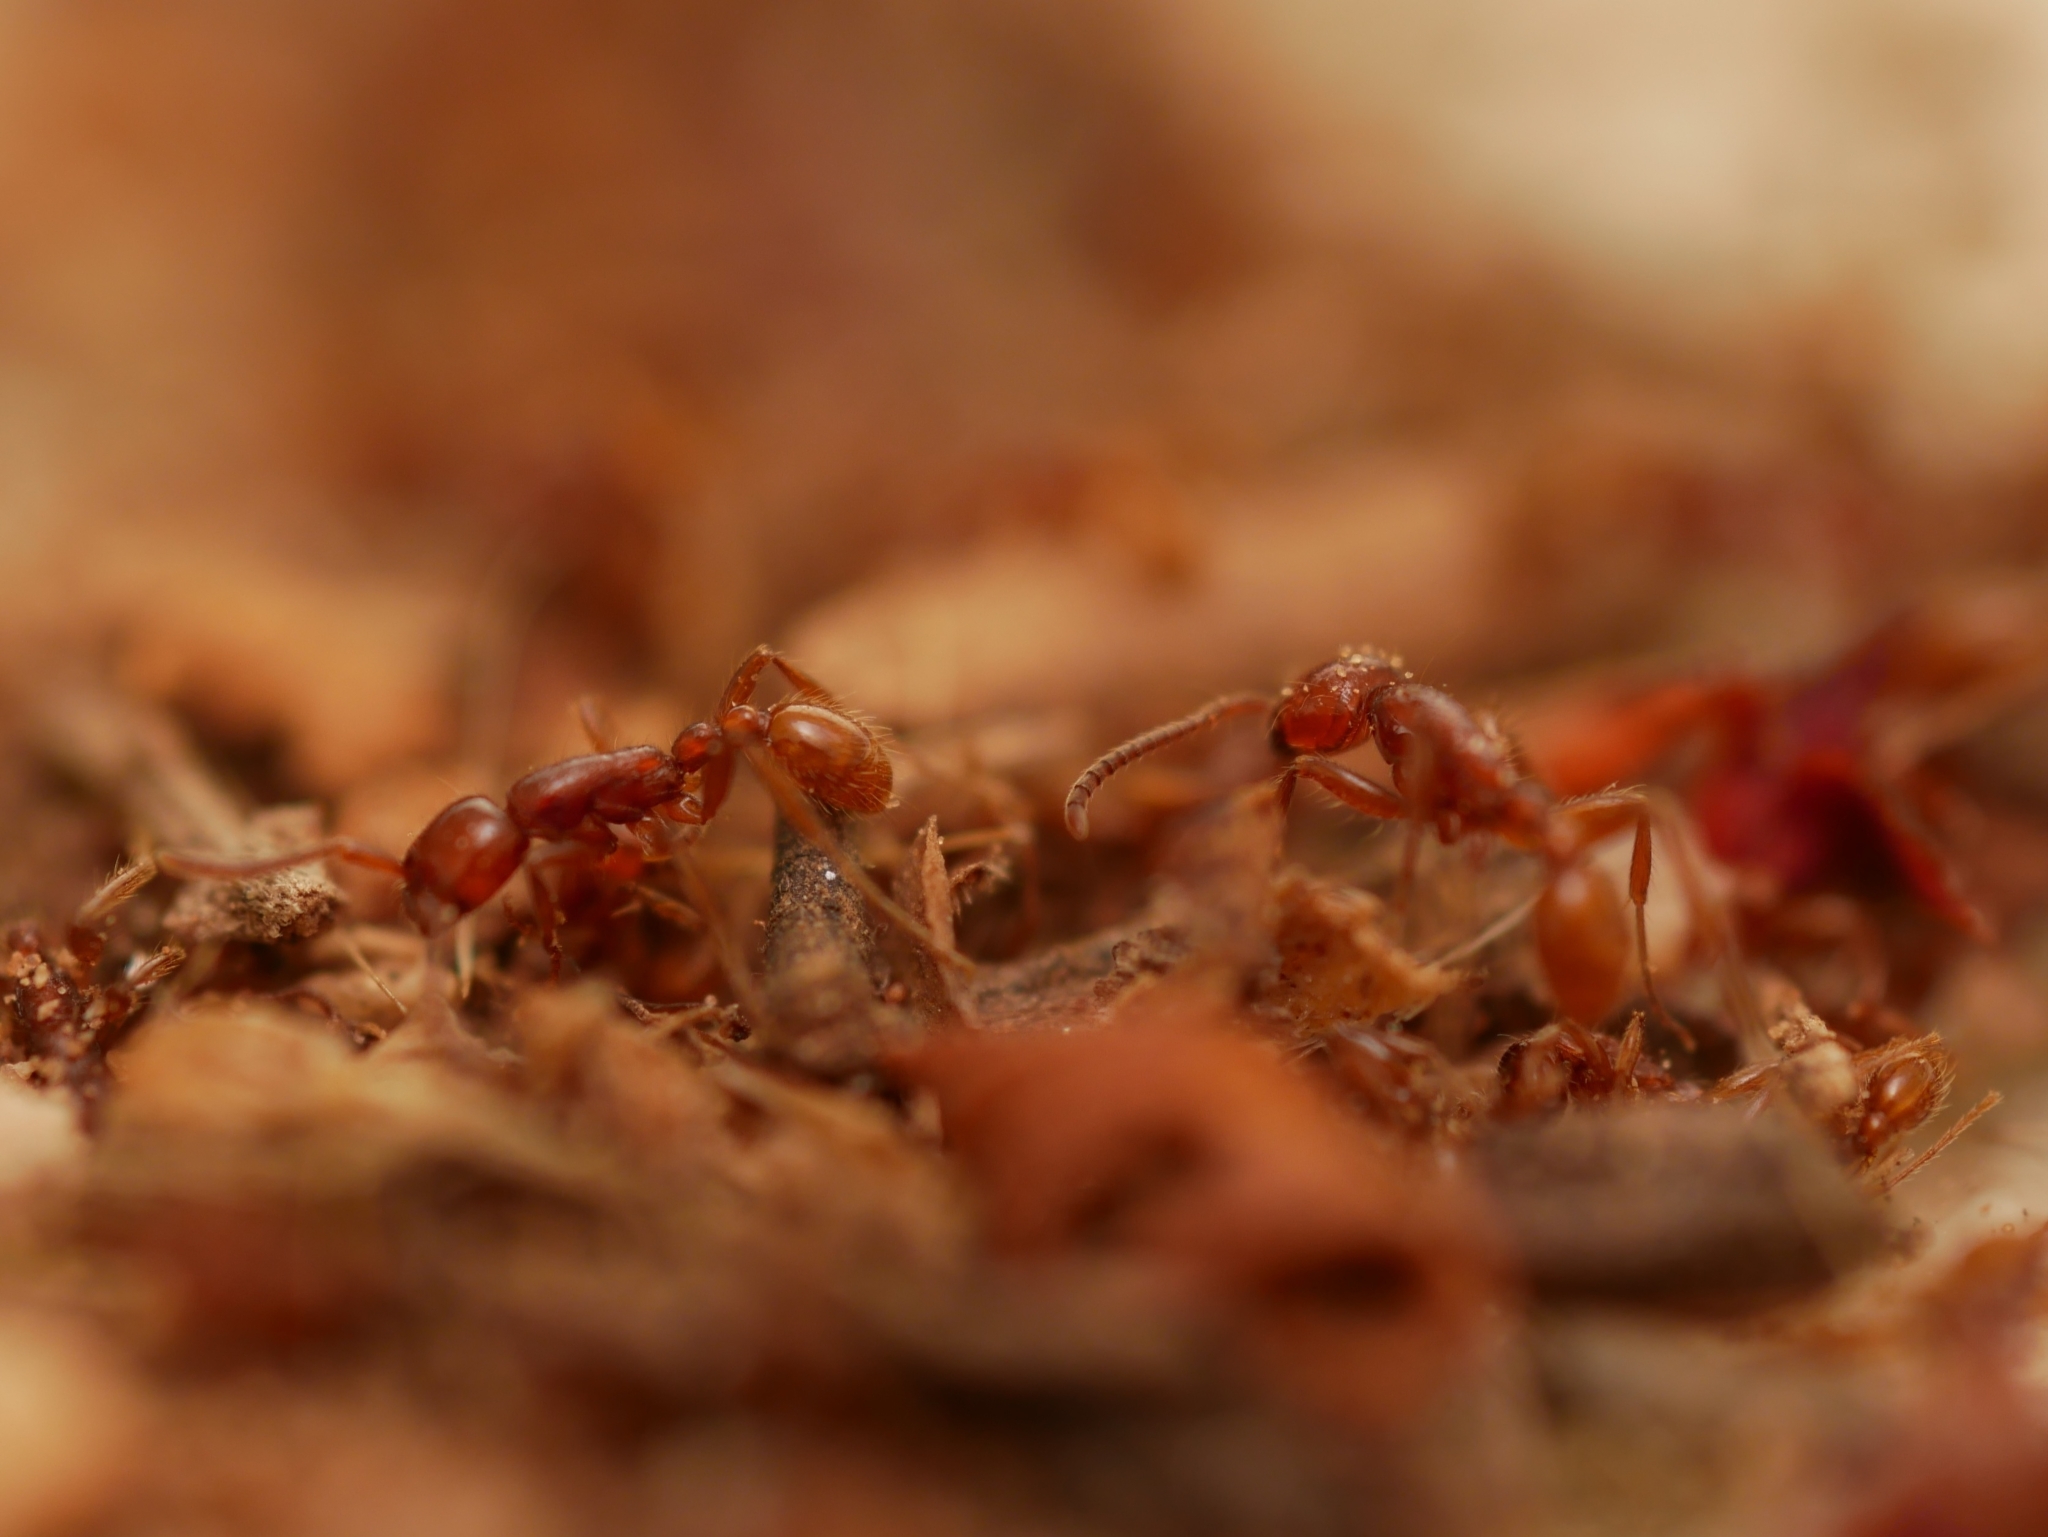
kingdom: Animalia
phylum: Arthropoda
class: Insecta
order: Hymenoptera
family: Formicidae
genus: Neivamyrmex
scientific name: Neivamyrmex opacithorax
